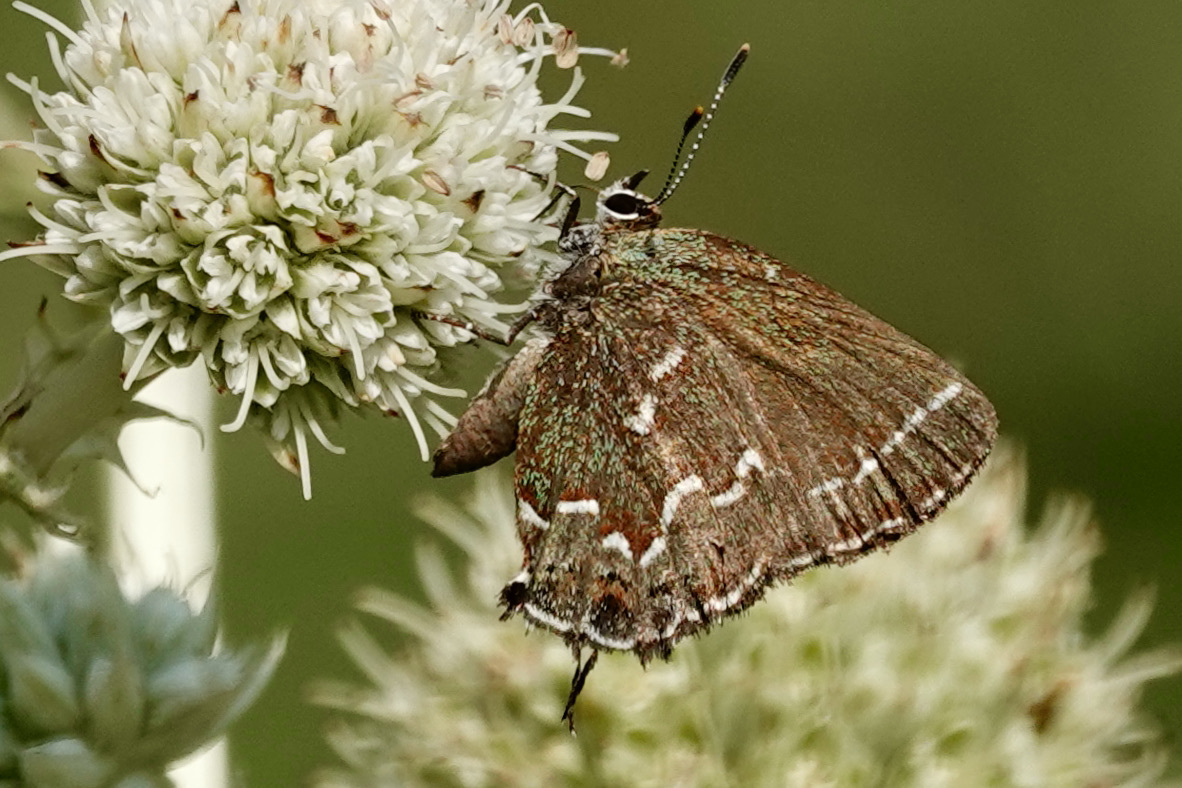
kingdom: Animalia
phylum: Arthropoda
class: Insecta
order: Lepidoptera
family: Lycaenidae
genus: Mitoura
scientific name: Mitoura gryneus
